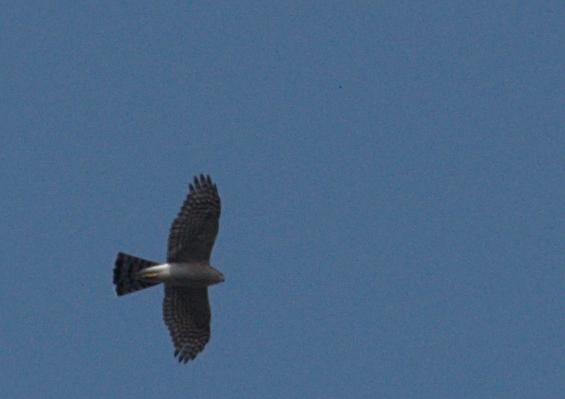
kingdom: Animalia
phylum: Chordata
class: Aves
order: Accipitriformes
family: Accipitridae
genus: Accipiter
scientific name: Accipiter nisus
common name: Eurasian sparrowhawk
